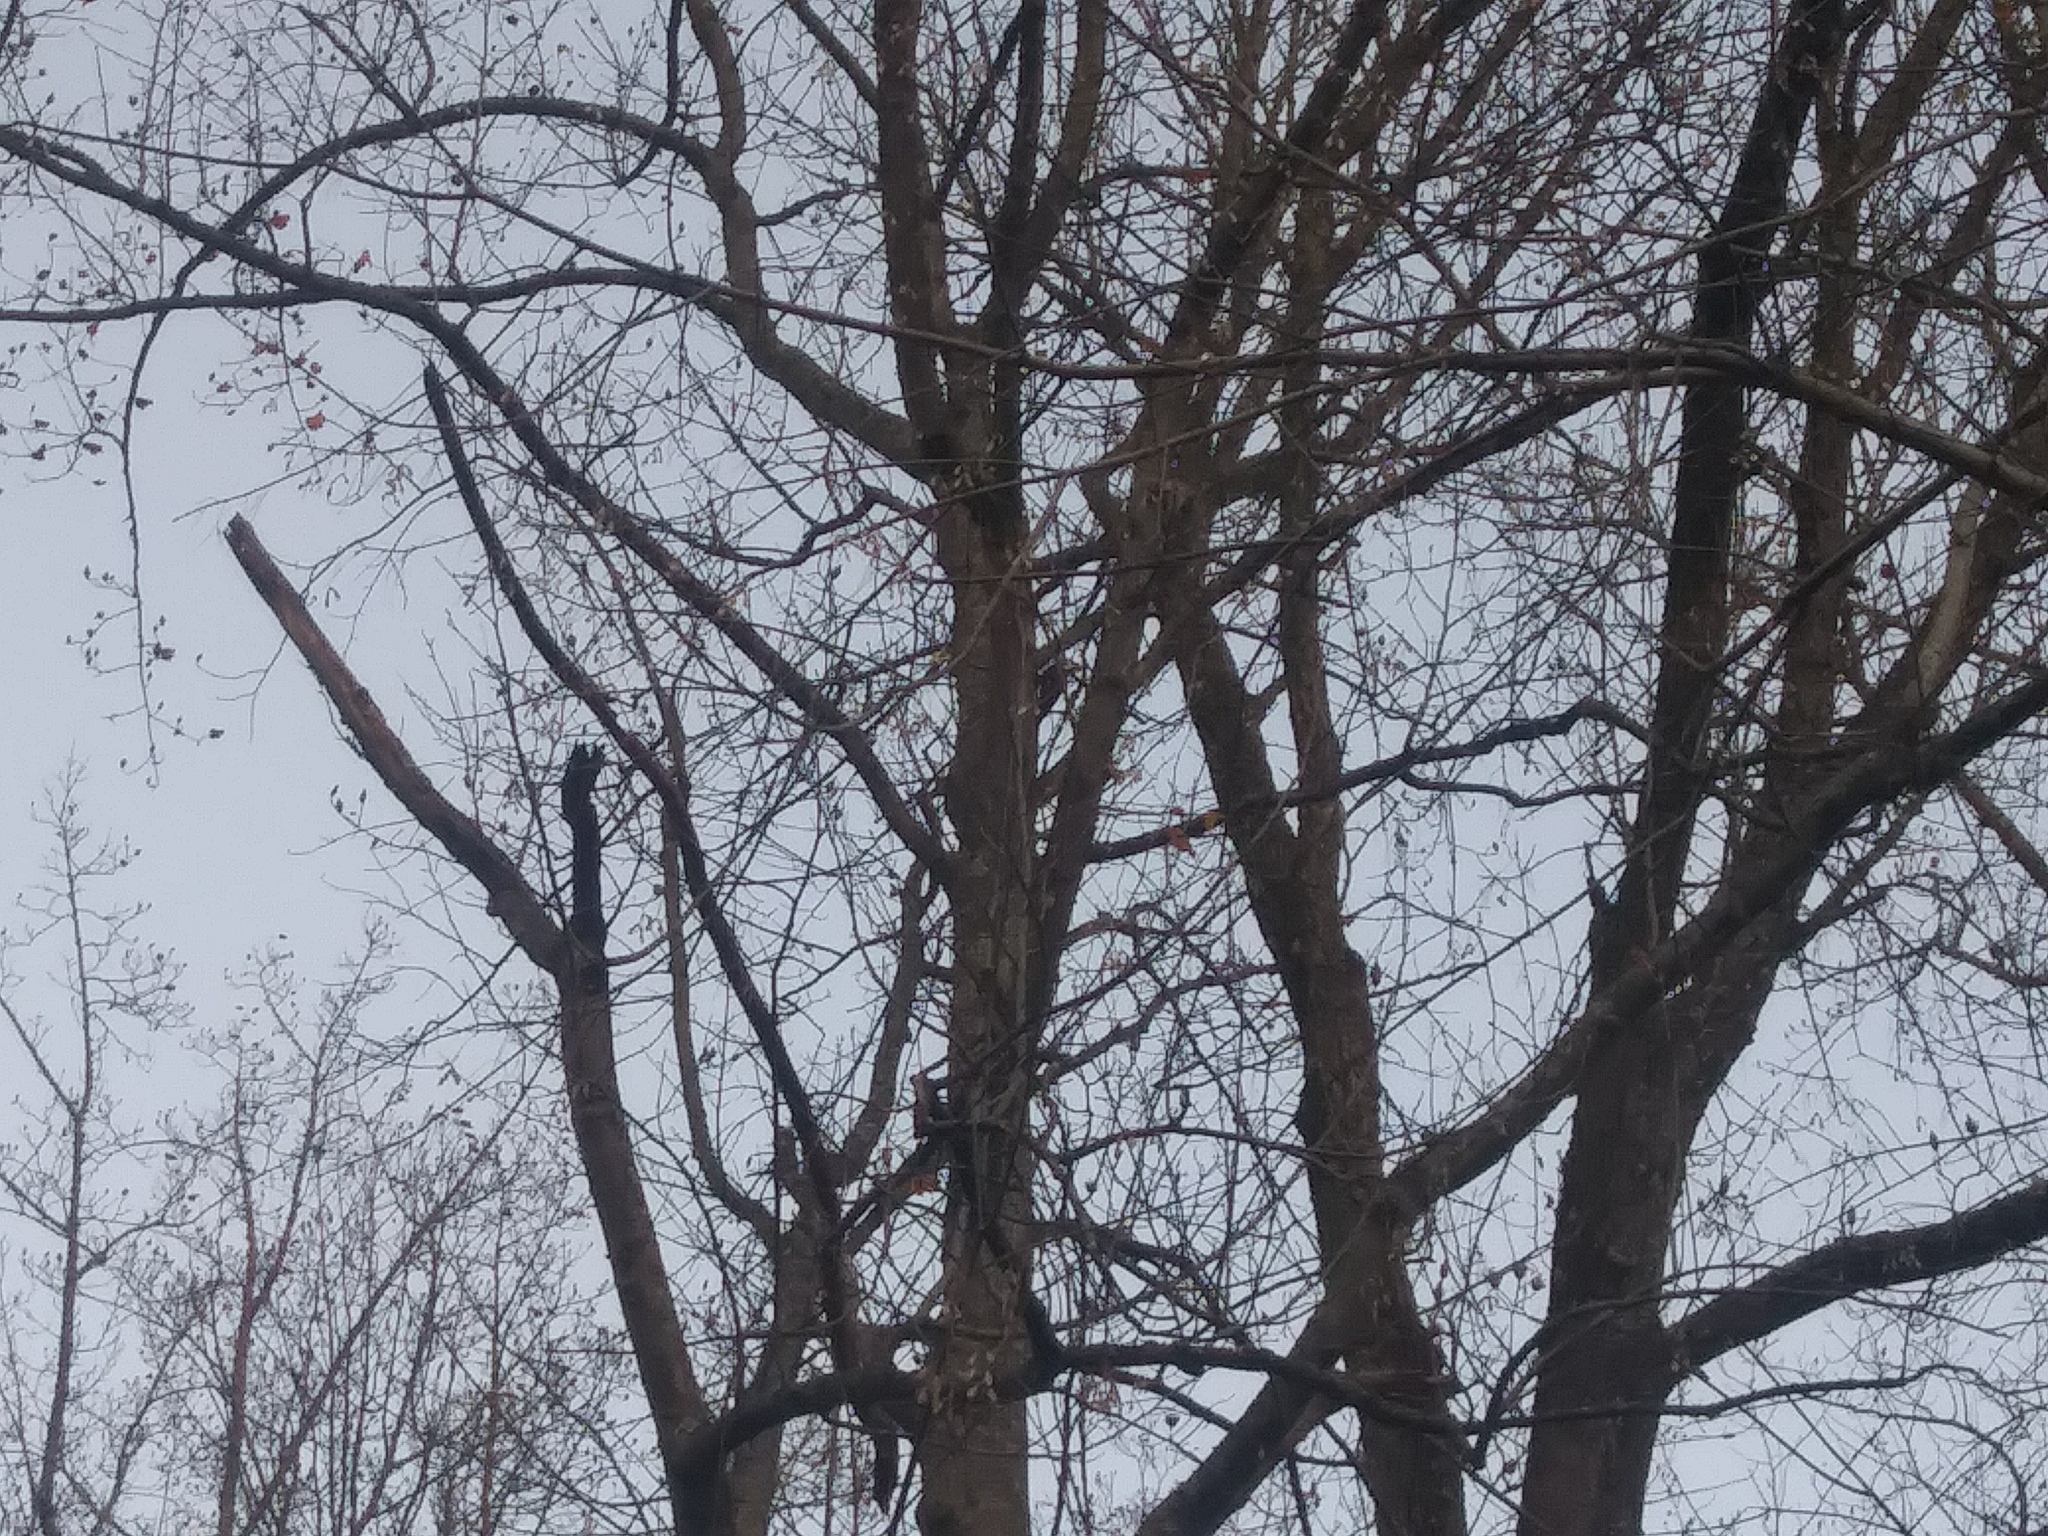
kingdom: Animalia
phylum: Chordata
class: Aves
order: Piciformes
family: Picidae
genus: Dryocopus
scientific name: Dryocopus pileatus
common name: Pileated woodpecker
